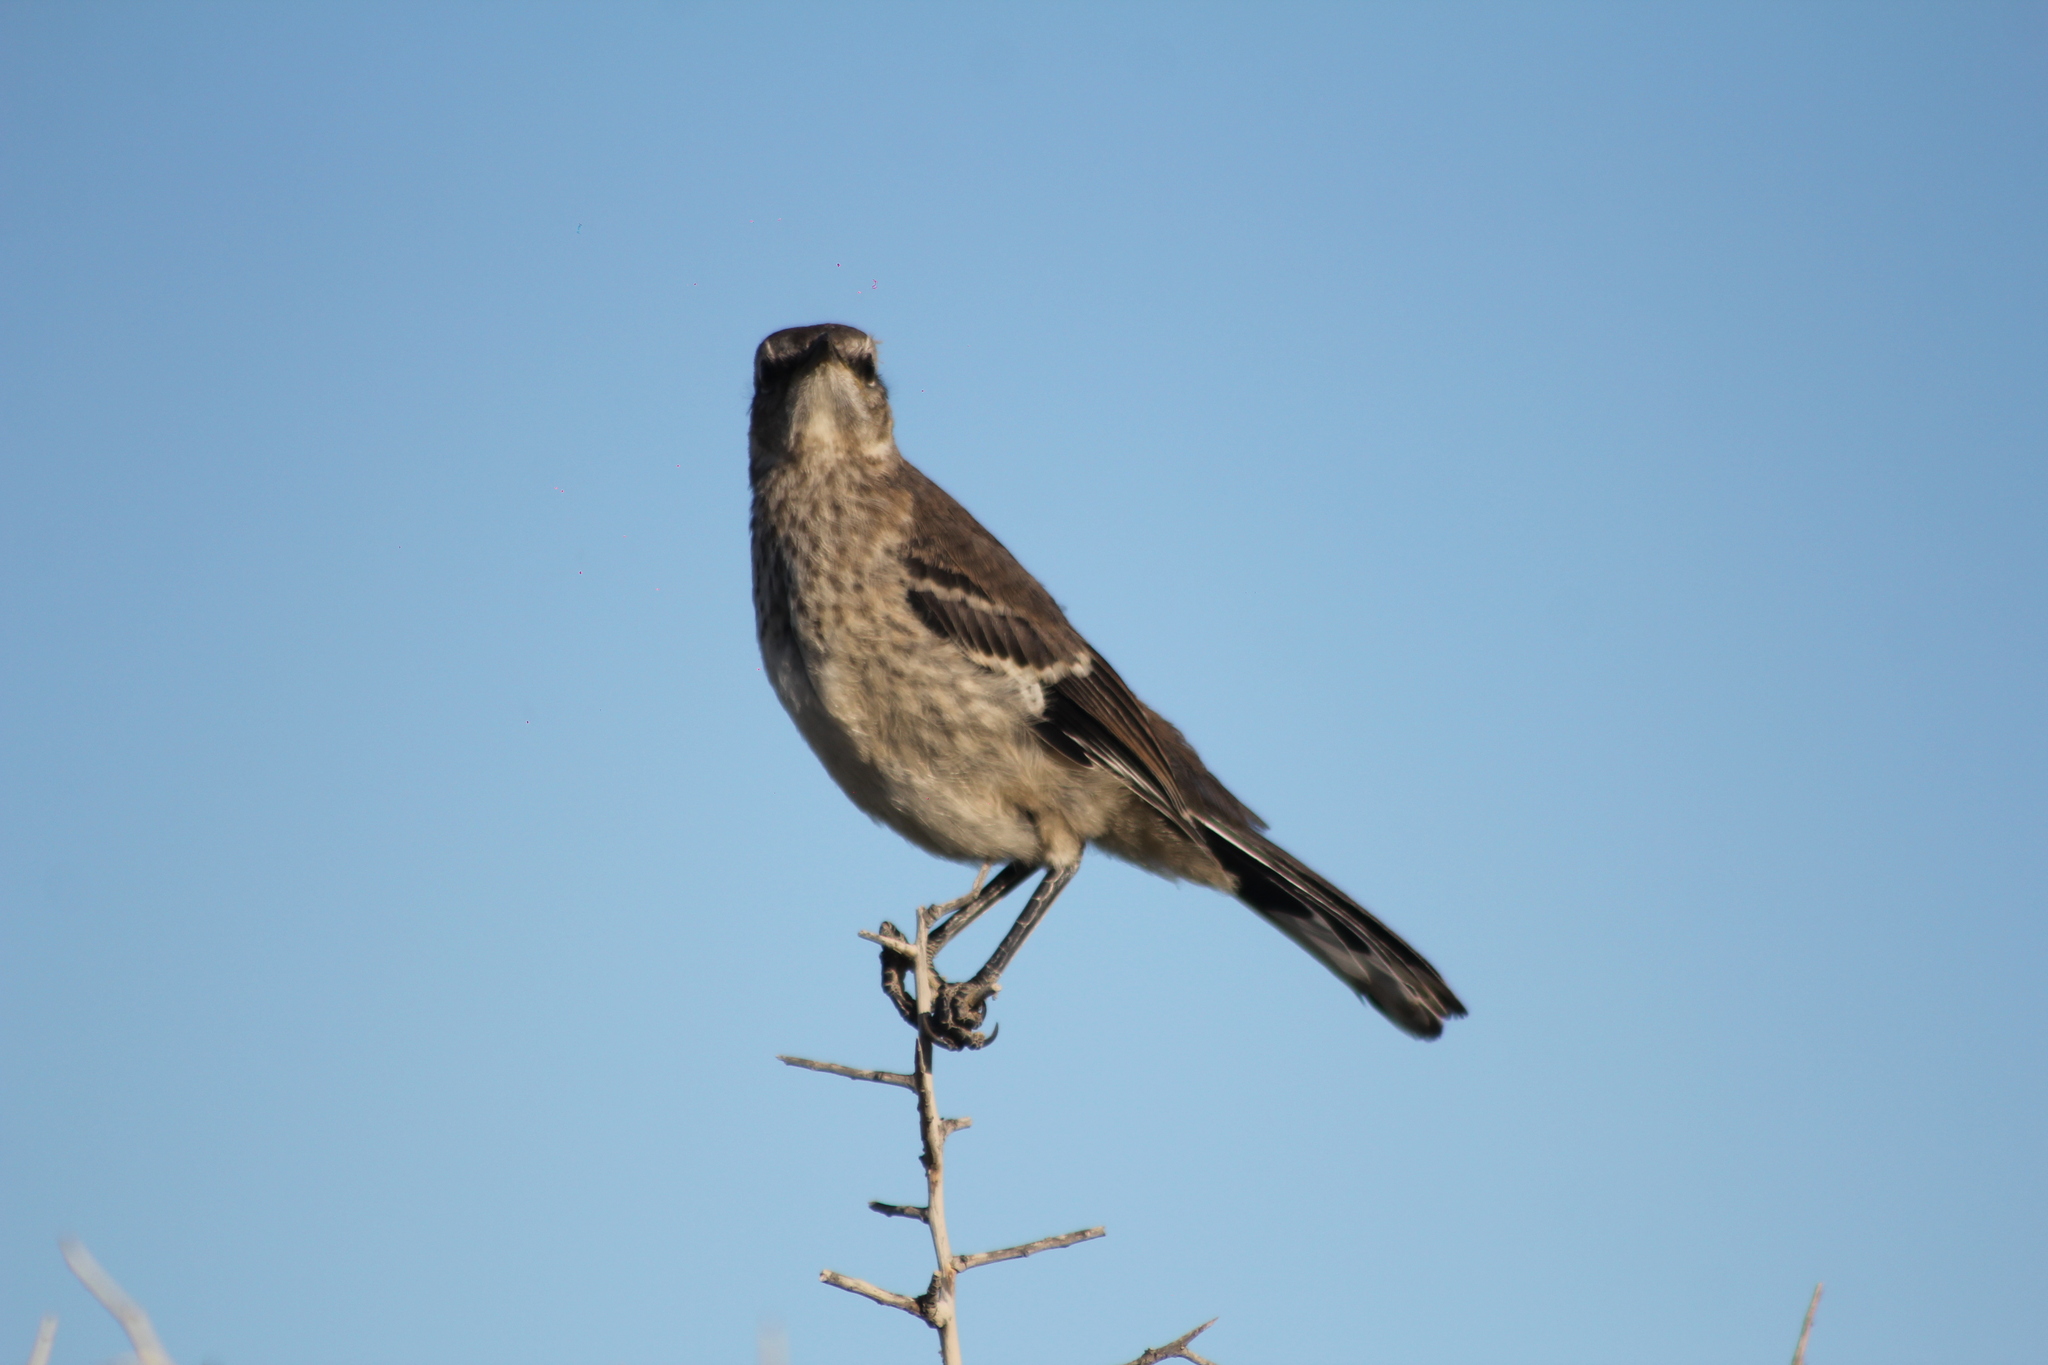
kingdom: Animalia
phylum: Chordata
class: Aves
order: Passeriformes
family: Mimidae
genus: Mimus
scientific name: Mimus patagonicus
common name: Patagonian mockingbird
